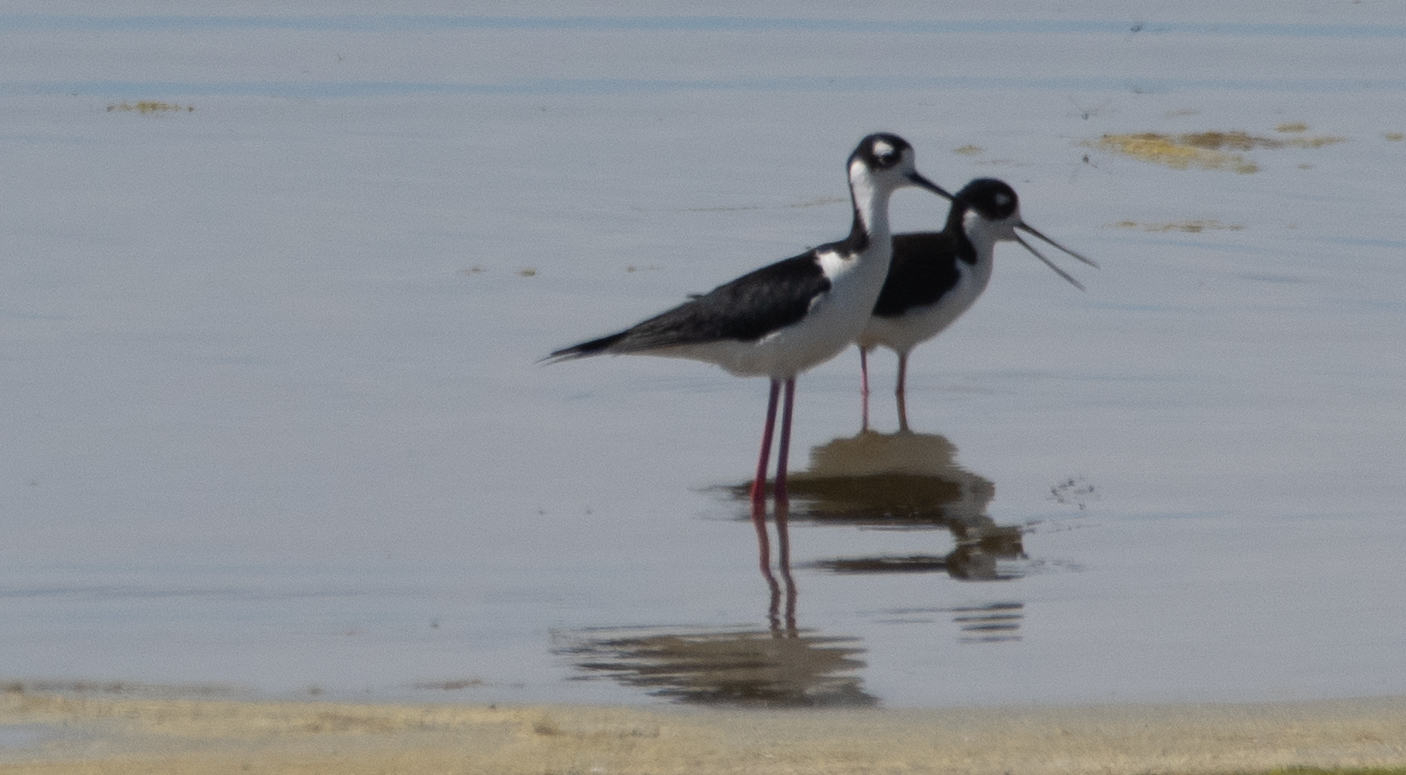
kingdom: Animalia
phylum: Chordata
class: Aves
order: Charadriiformes
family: Recurvirostridae
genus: Himantopus
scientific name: Himantopus mexicanus
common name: Black-necked stilt
